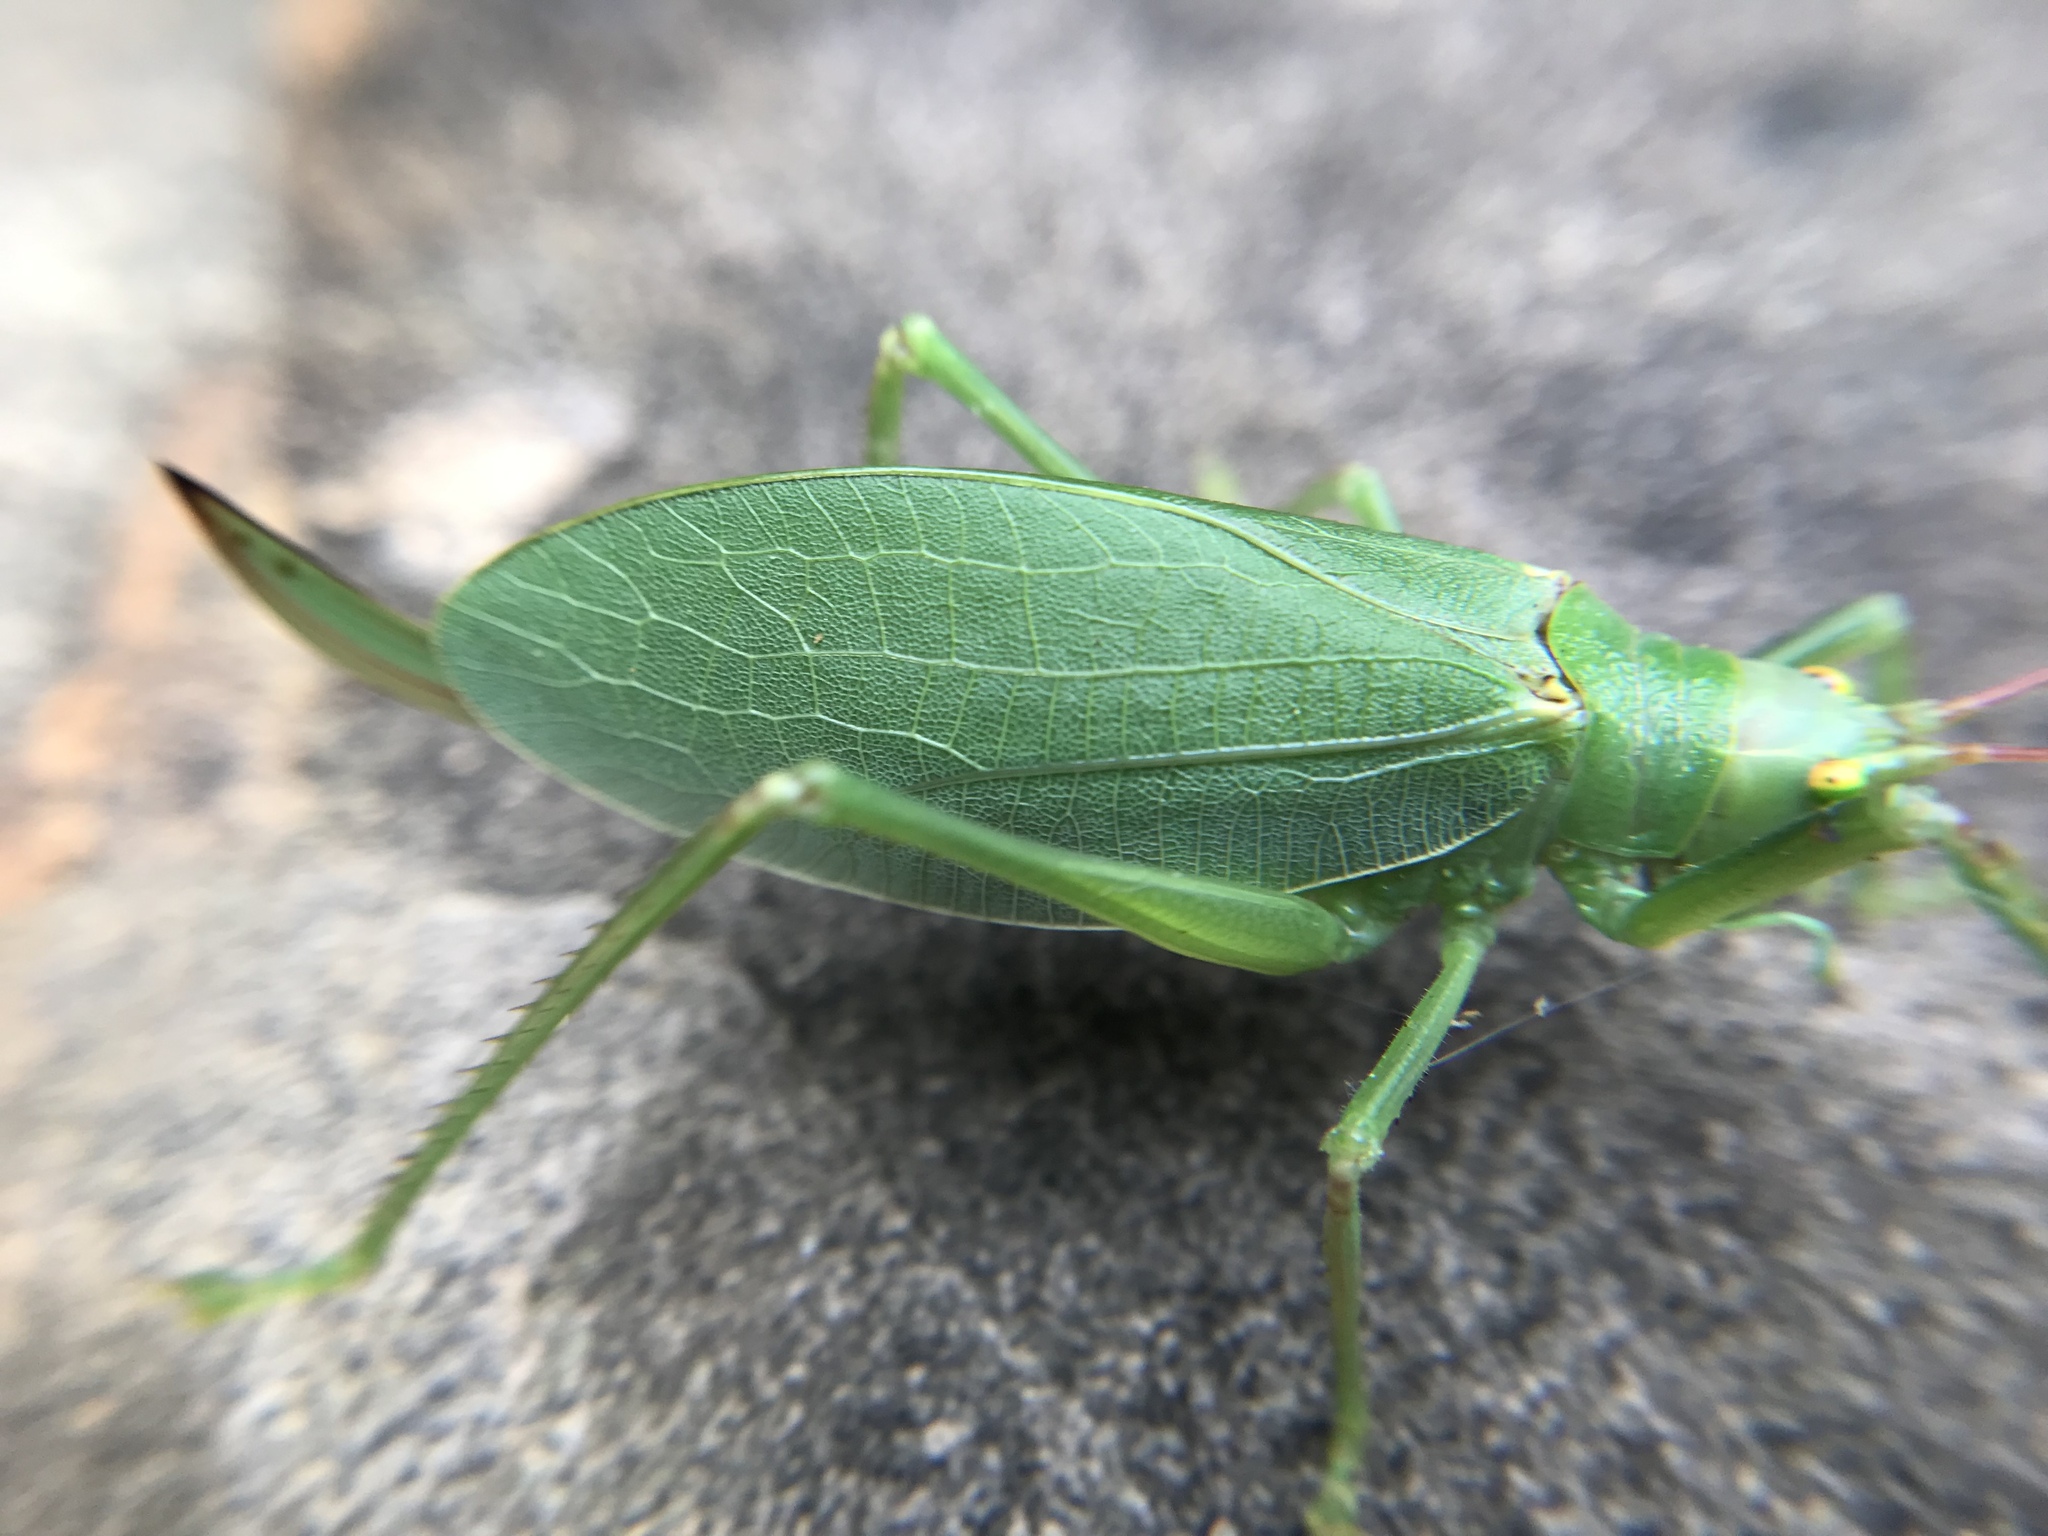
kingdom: Animalia
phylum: Arthropoda
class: Insecta
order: Orthoptera
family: Tettigoniidae
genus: Pterophylla
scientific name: Pterophylla camellifolia
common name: Common true katydid
